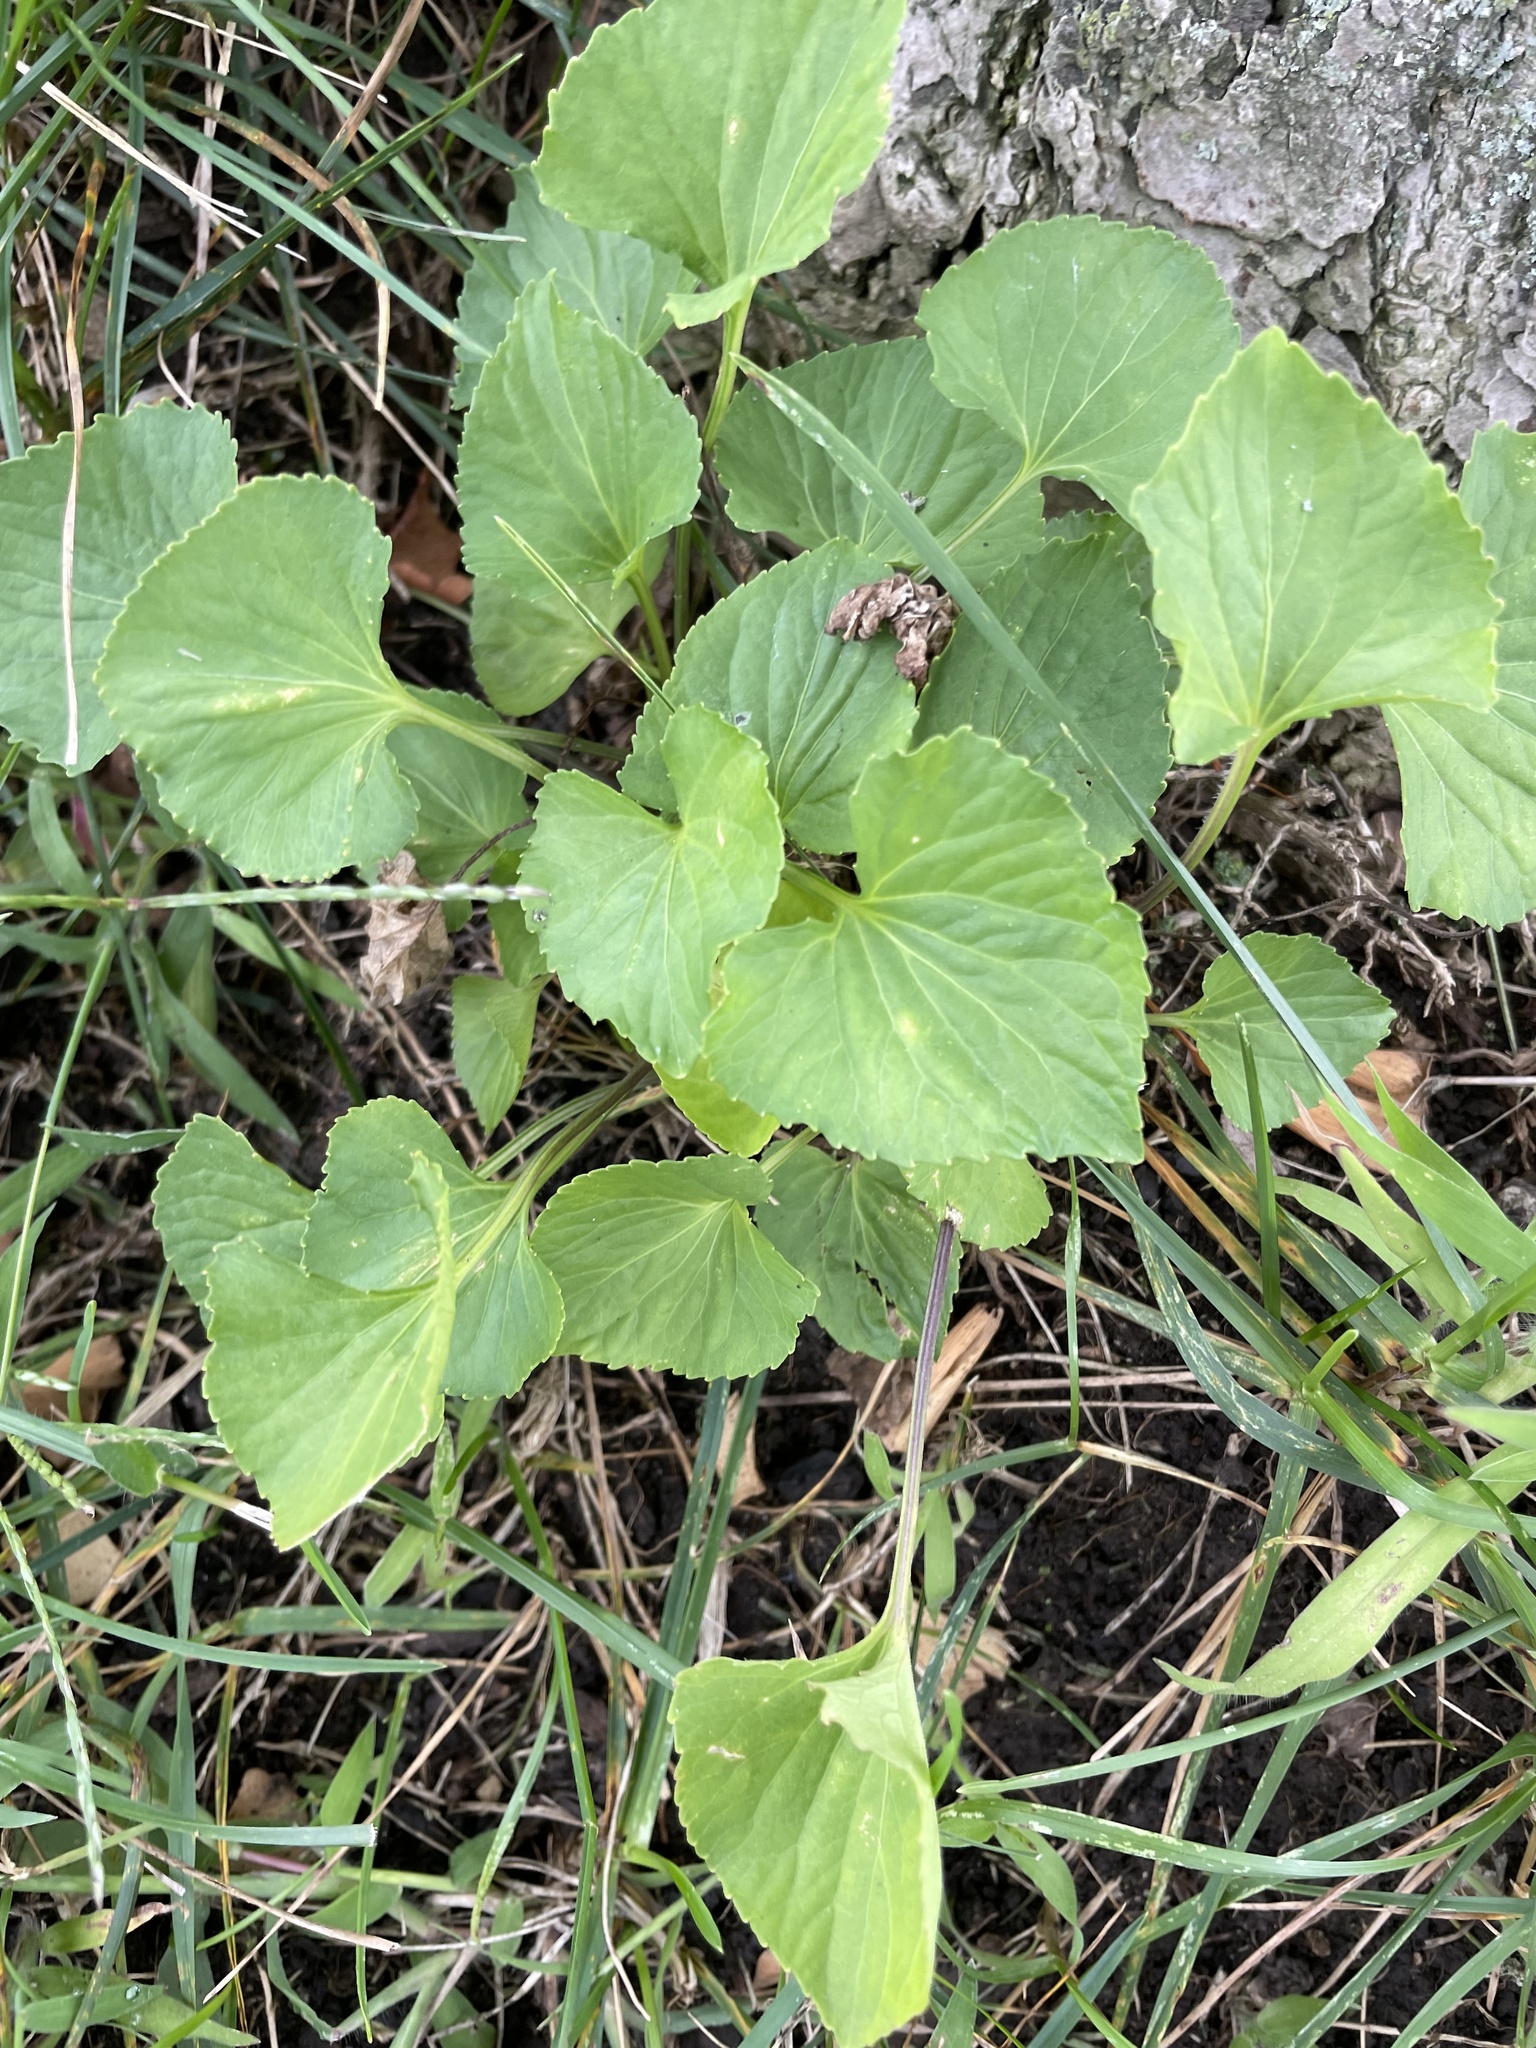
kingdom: Plantae
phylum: Tracheophyta
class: Magnoliopsida
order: Malpighiales
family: Violaceae
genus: Viola
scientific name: Viola sororia
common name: Dooryard violet
